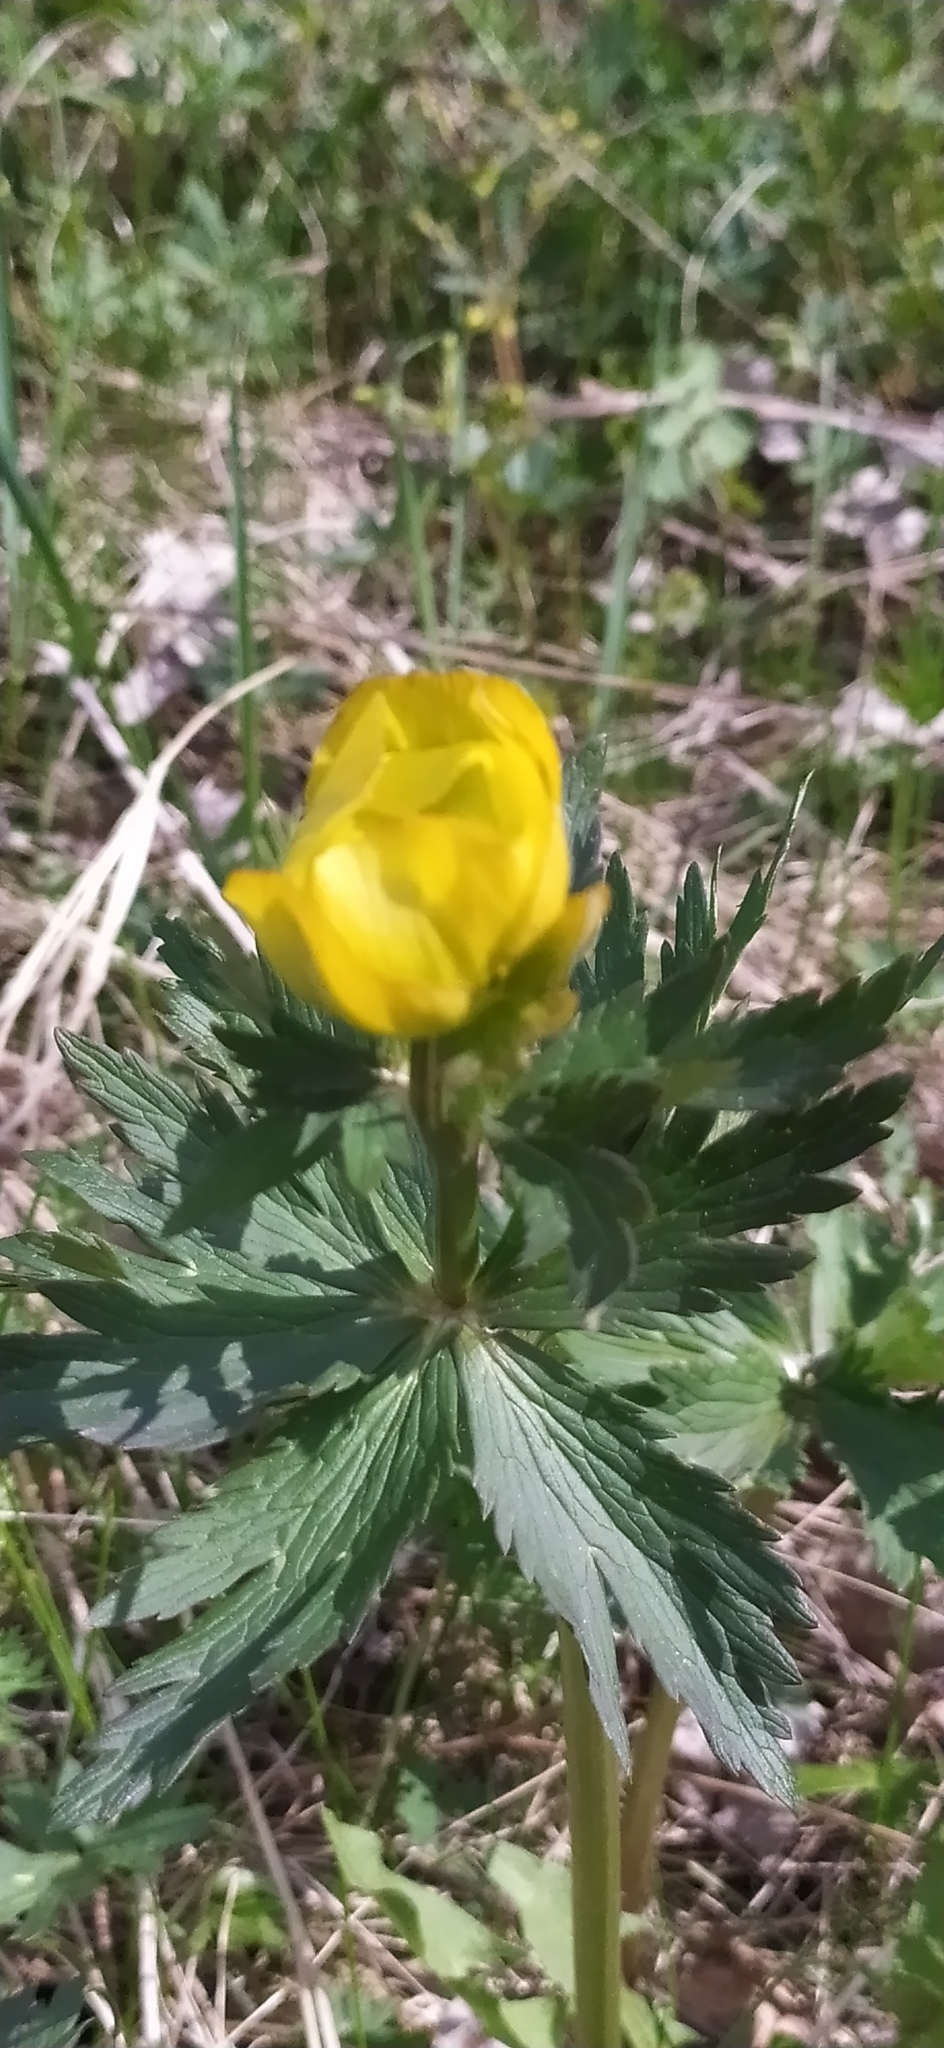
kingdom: Plantae
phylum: Tracheophyta
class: Magnoliopsida
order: Ranunculales
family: Ranunculaceae
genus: Trollius
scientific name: Trollius europaeus
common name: European globeflower
